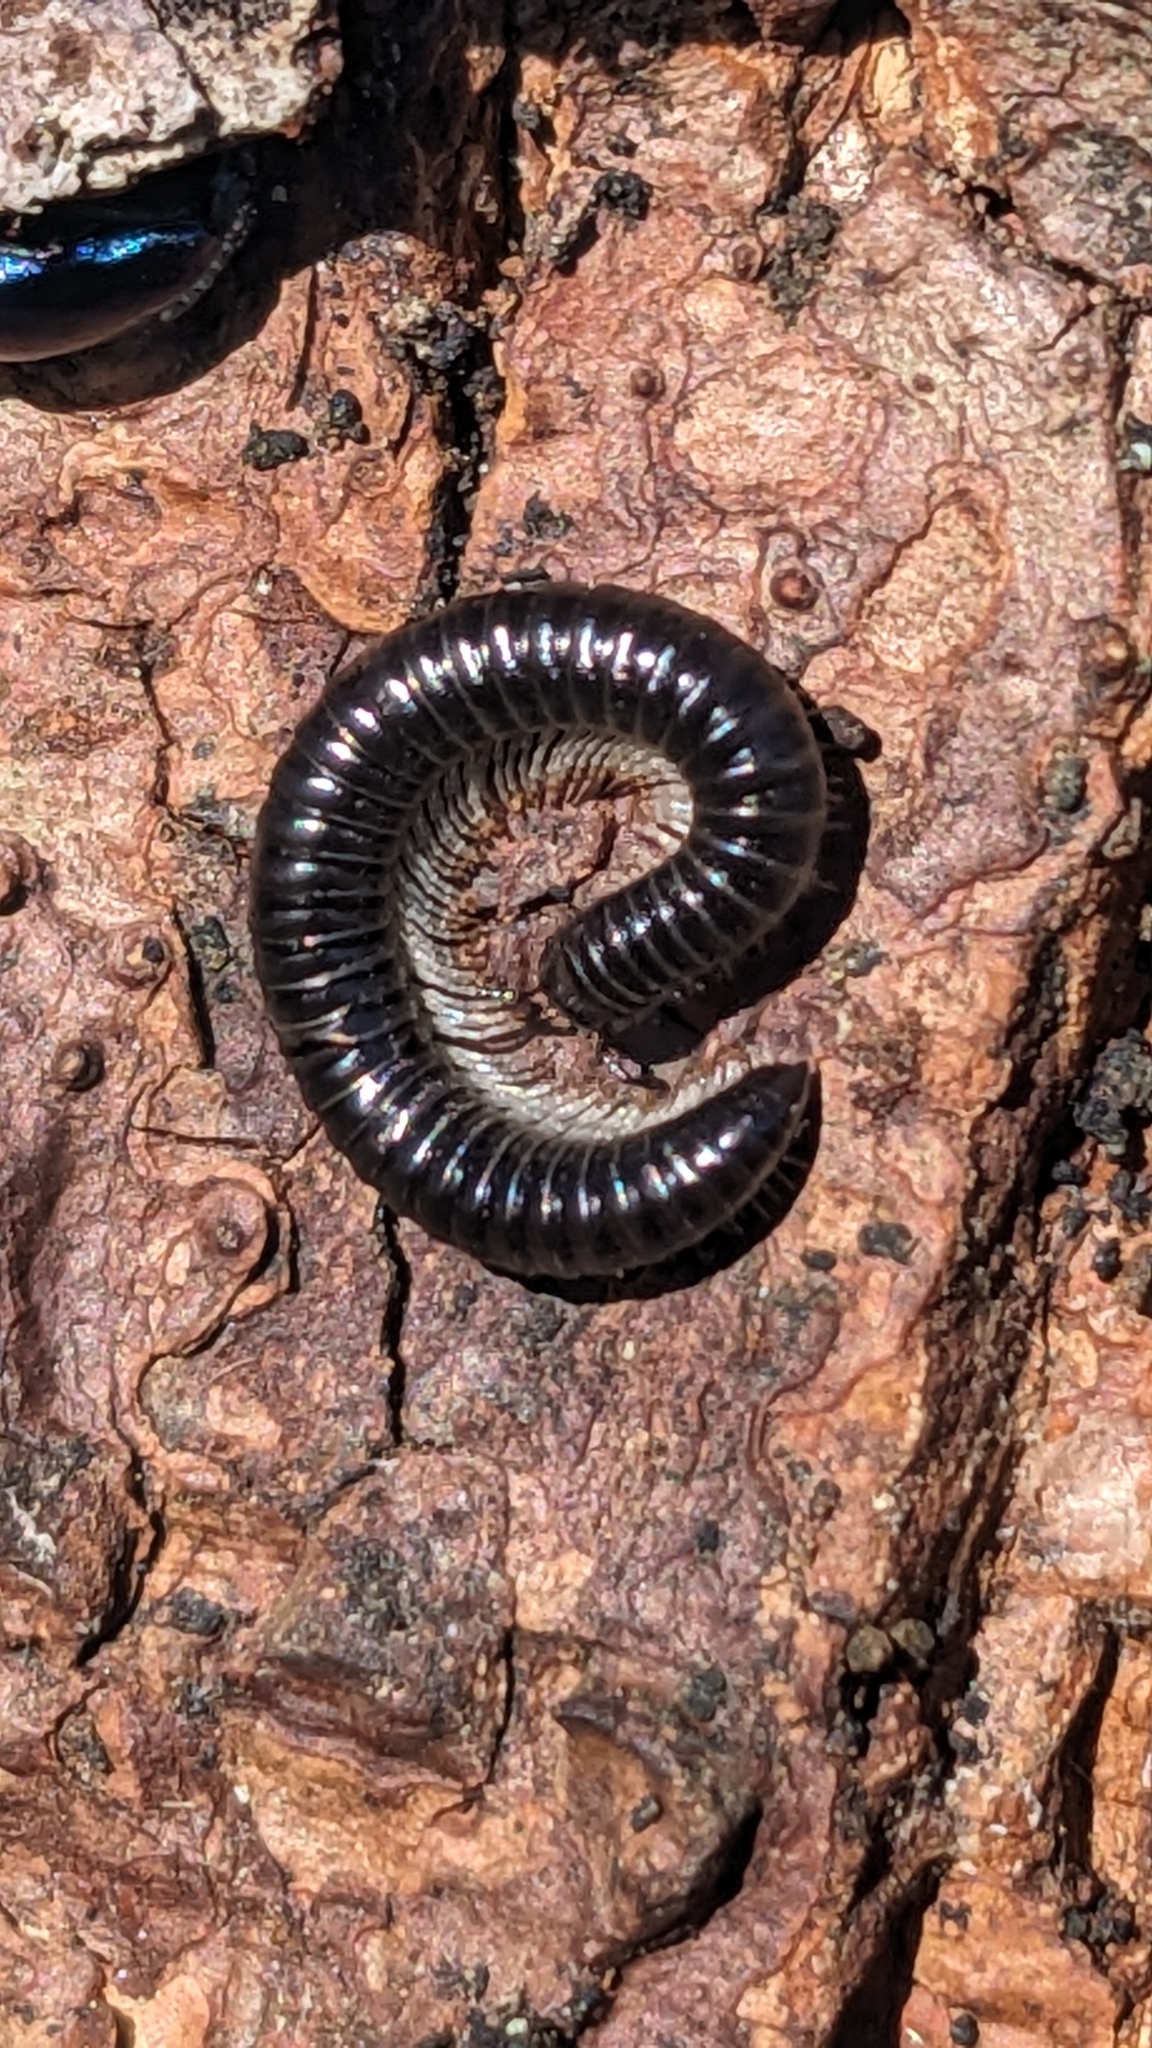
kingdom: Animalia
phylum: Arthropoda
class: Diplopoda
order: Julida
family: Julidae
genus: Tachypodoiulus
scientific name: Tachypodoiulus niger
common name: White-legged snake millipede
